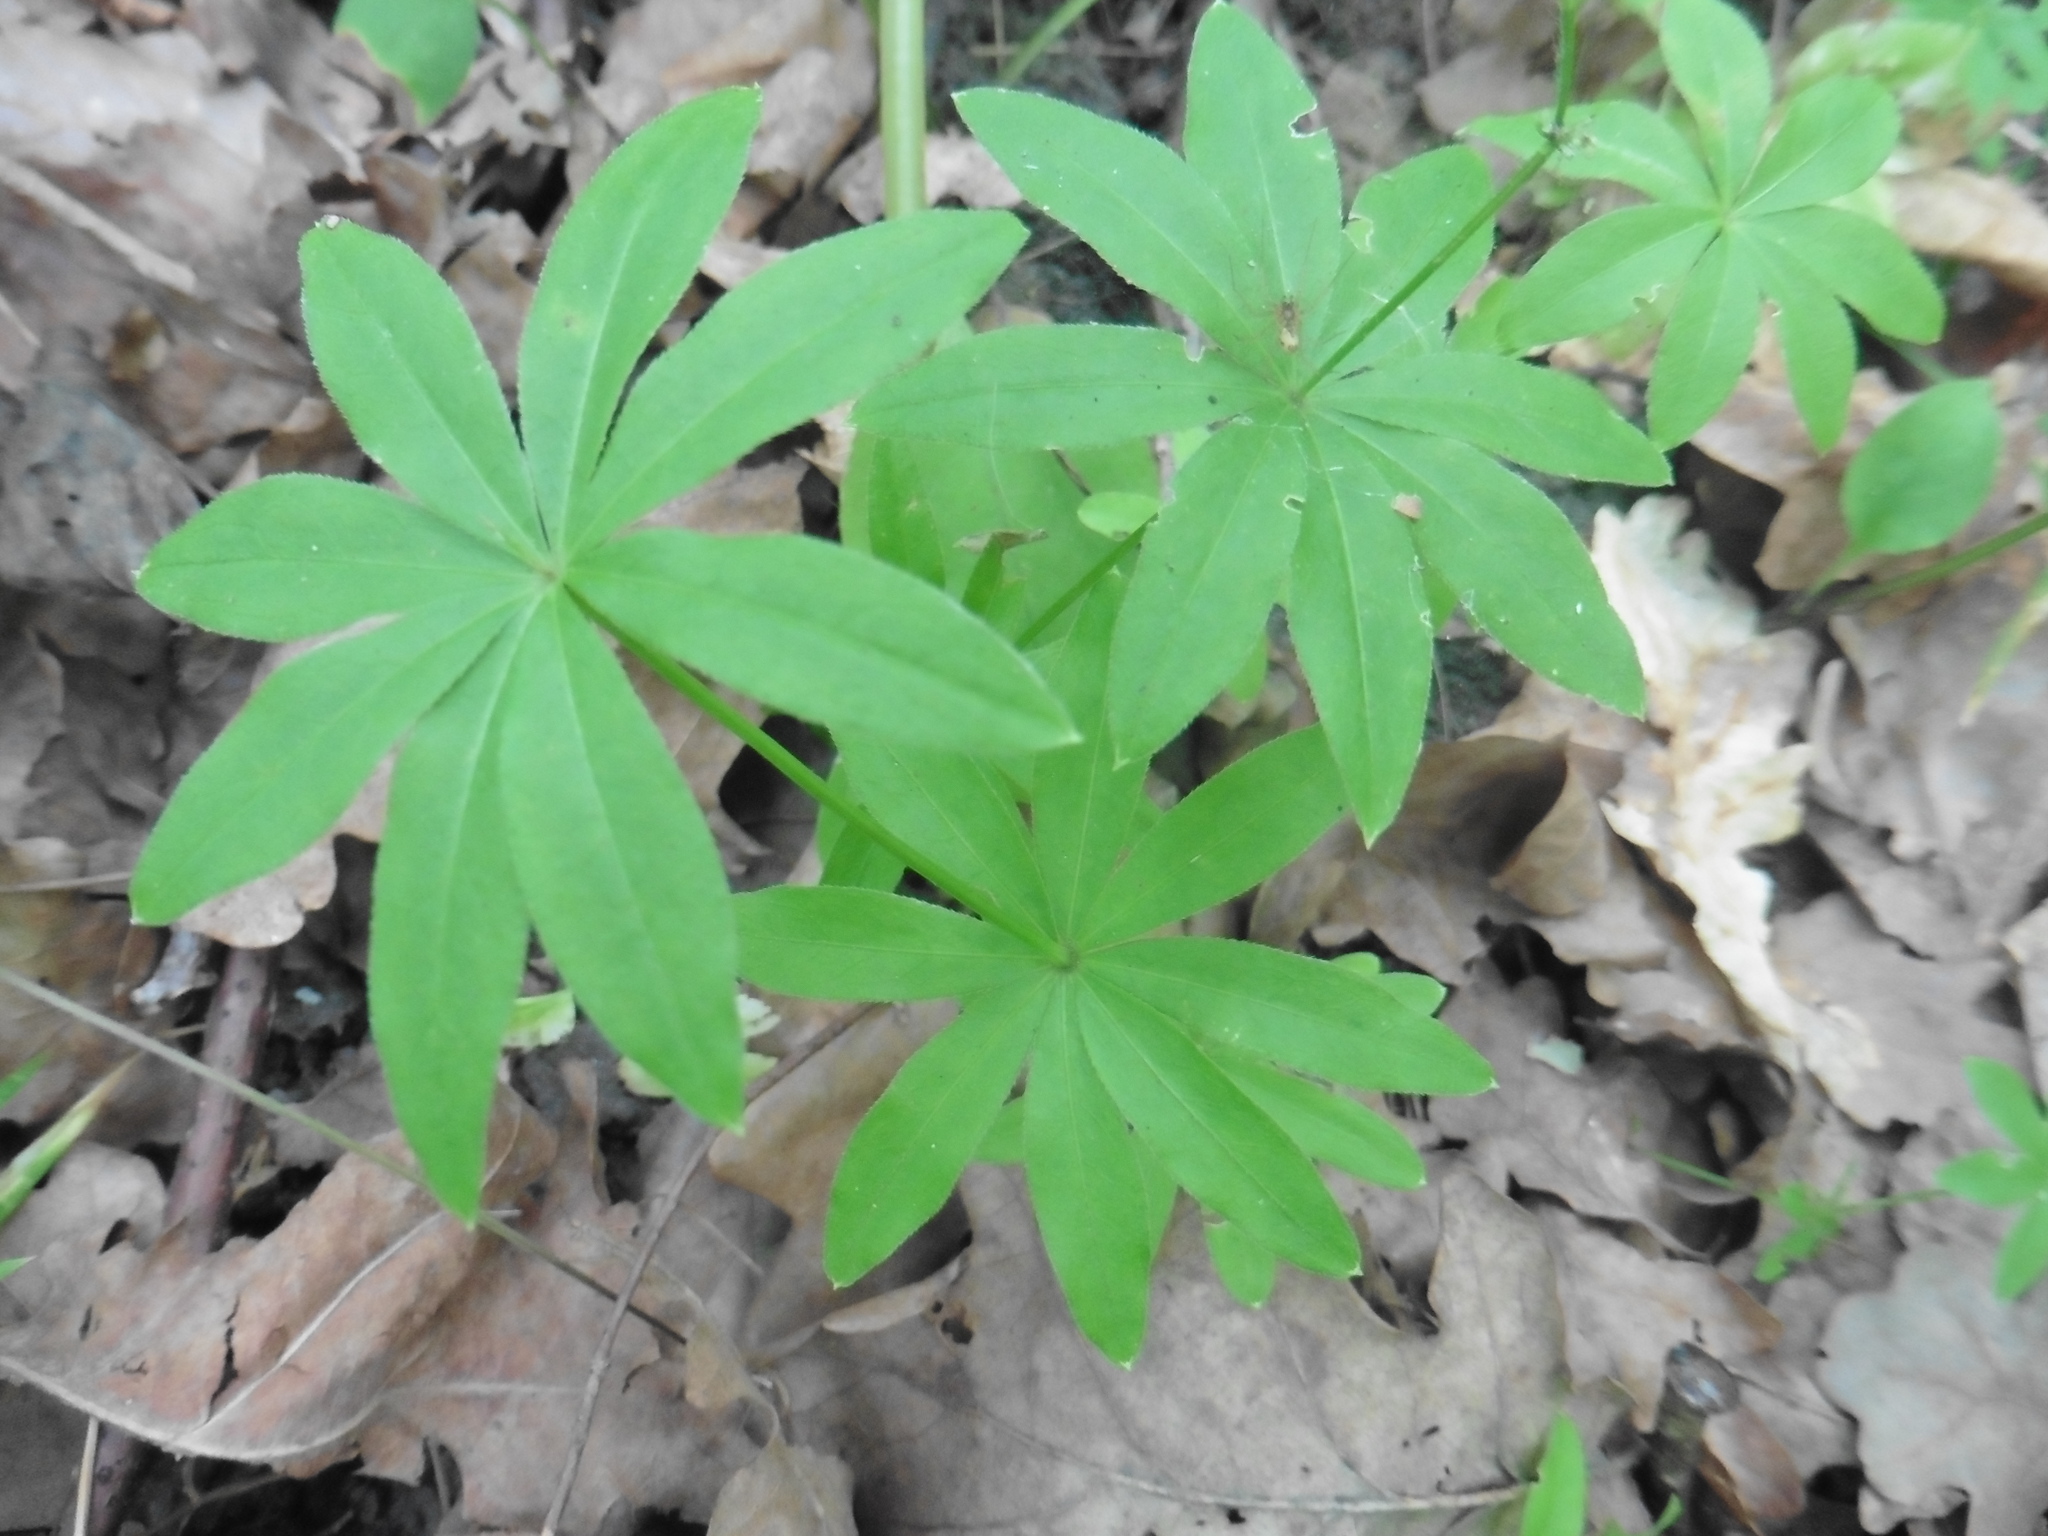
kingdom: Plantae
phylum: Tracheophyta
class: Magnoliopsida
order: Gentianales
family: Rubiaceae
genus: Galium
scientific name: Galium odoratum
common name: Sweet woodruff
